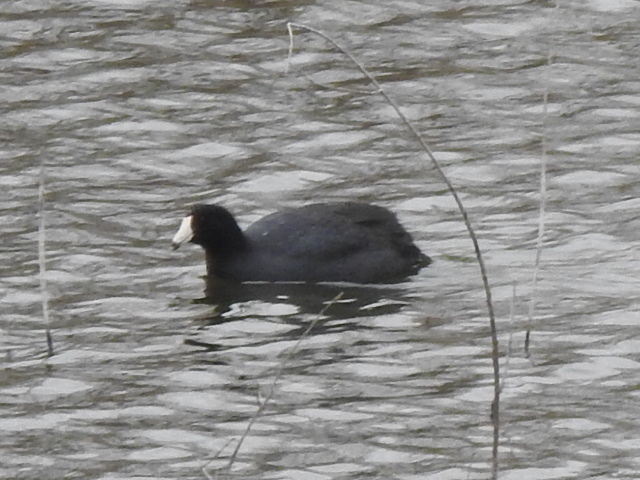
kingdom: Animalia
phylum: Chordata
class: Aves
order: Gruiformes
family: Rallidae
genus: Fulica
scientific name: Fulica americana
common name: American coot
